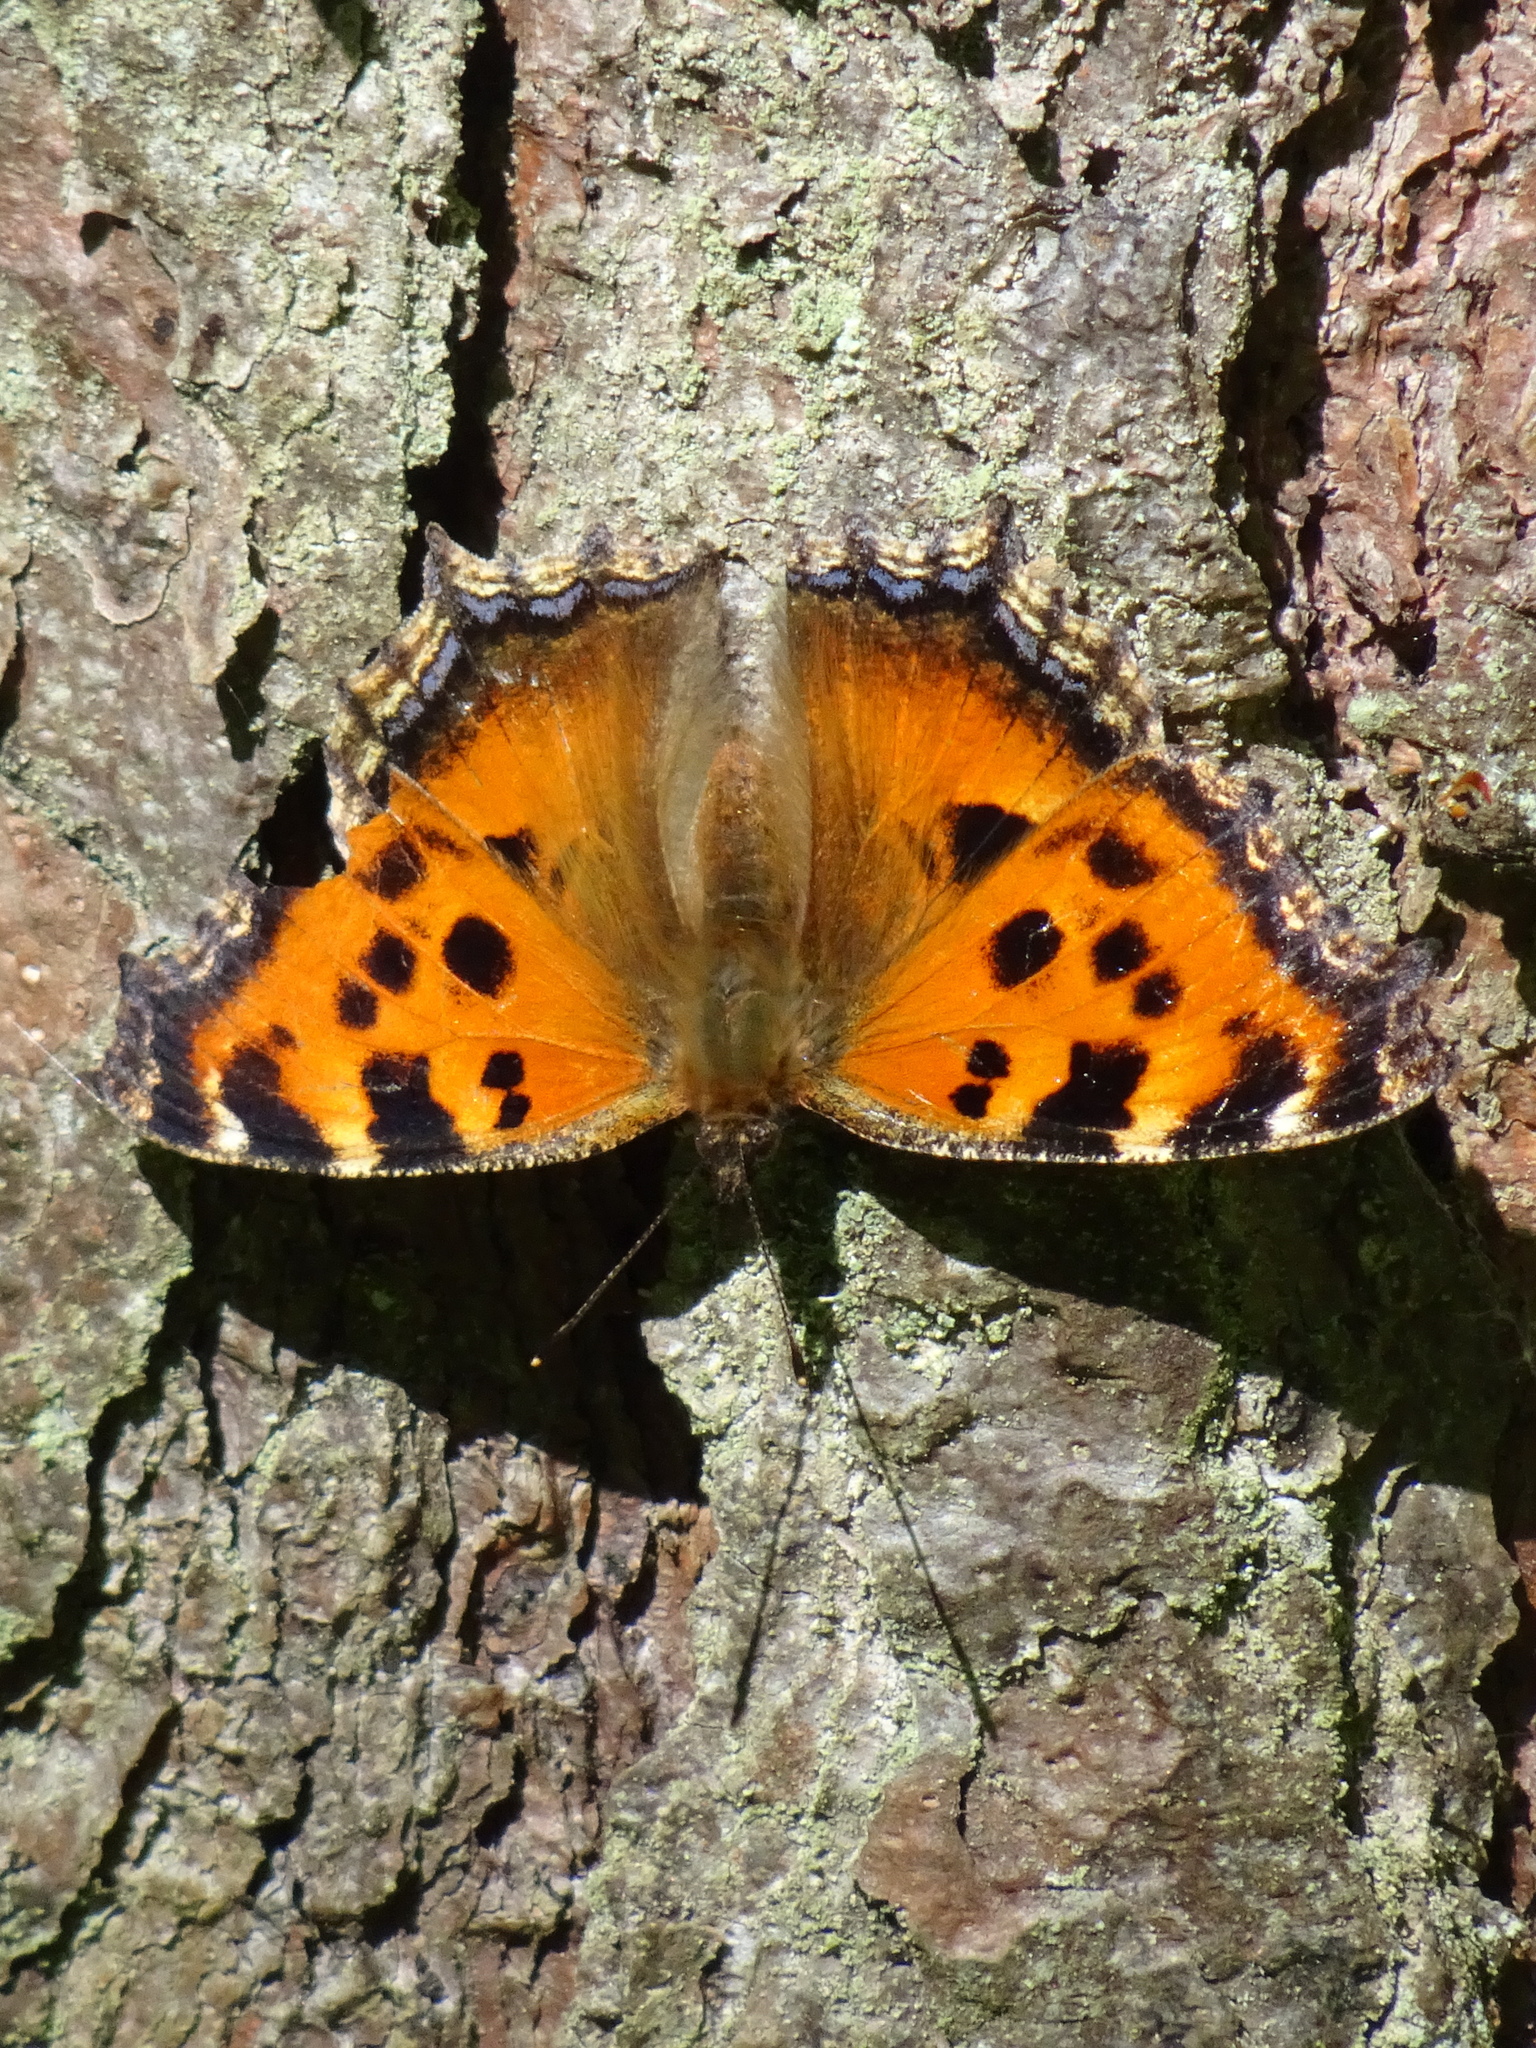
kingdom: Animalia
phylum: Arthropoda
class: Insecta
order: Lepidoptera
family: Nymphalidae
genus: Nymphalis
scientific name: Nymphalis xanthomelas
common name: Scarce tortoiseshell
